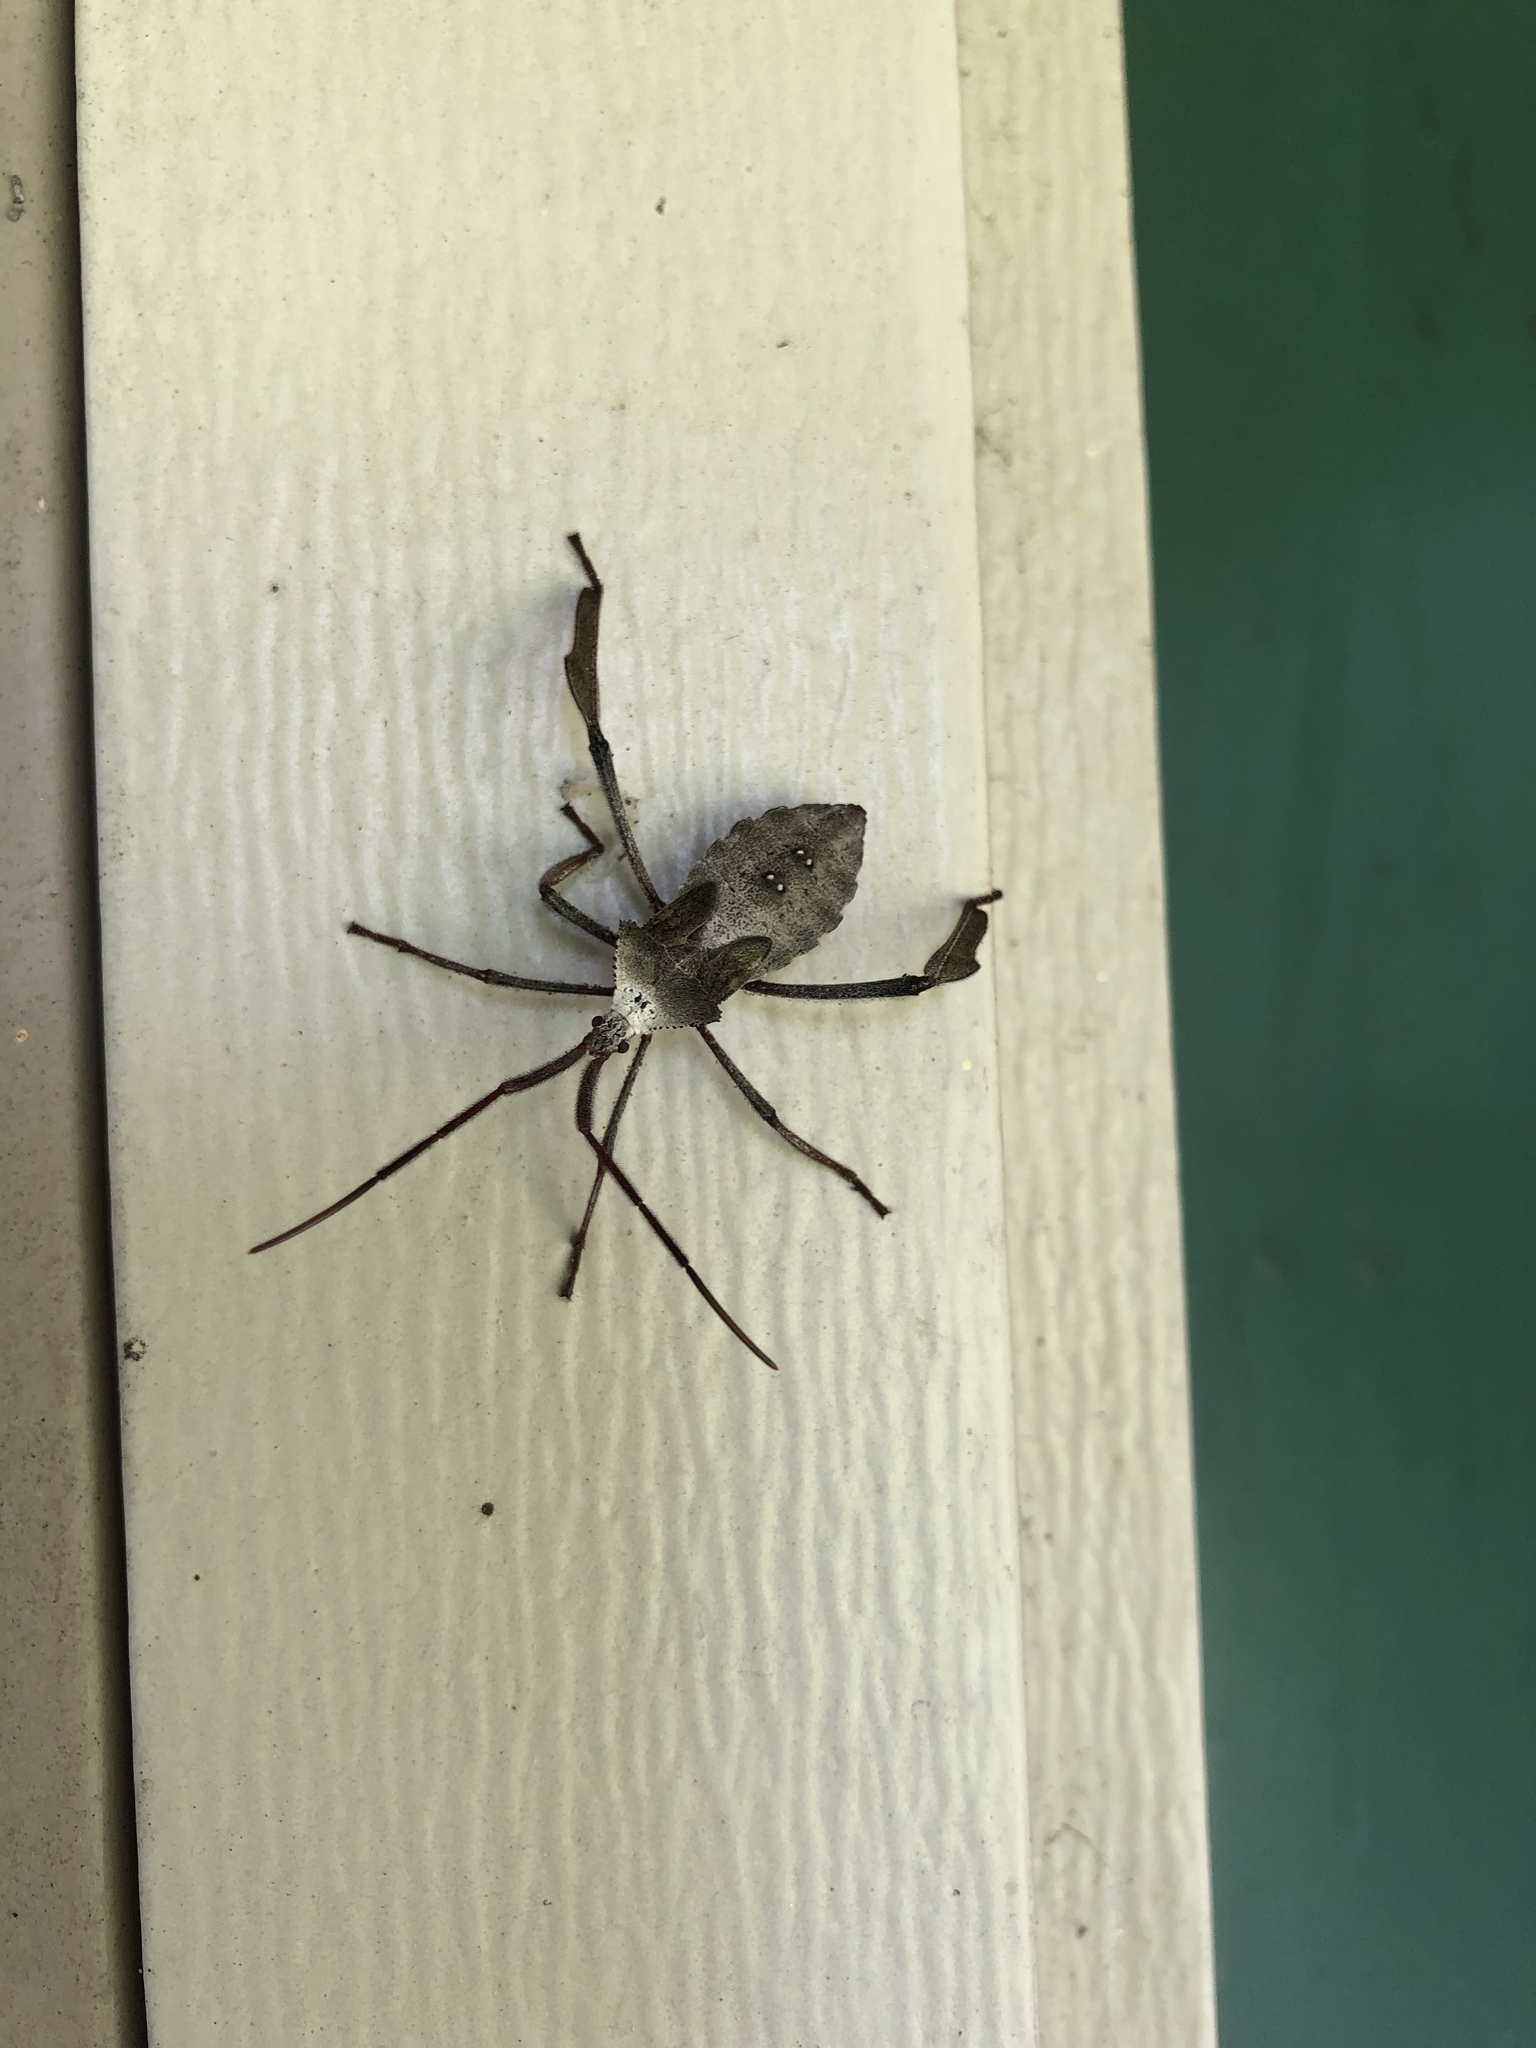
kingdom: Animalia
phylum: Arthropoda
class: Insecta
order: Hemiptera
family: Coreidae
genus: Acanthocephala
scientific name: Acanthocephala declivis
